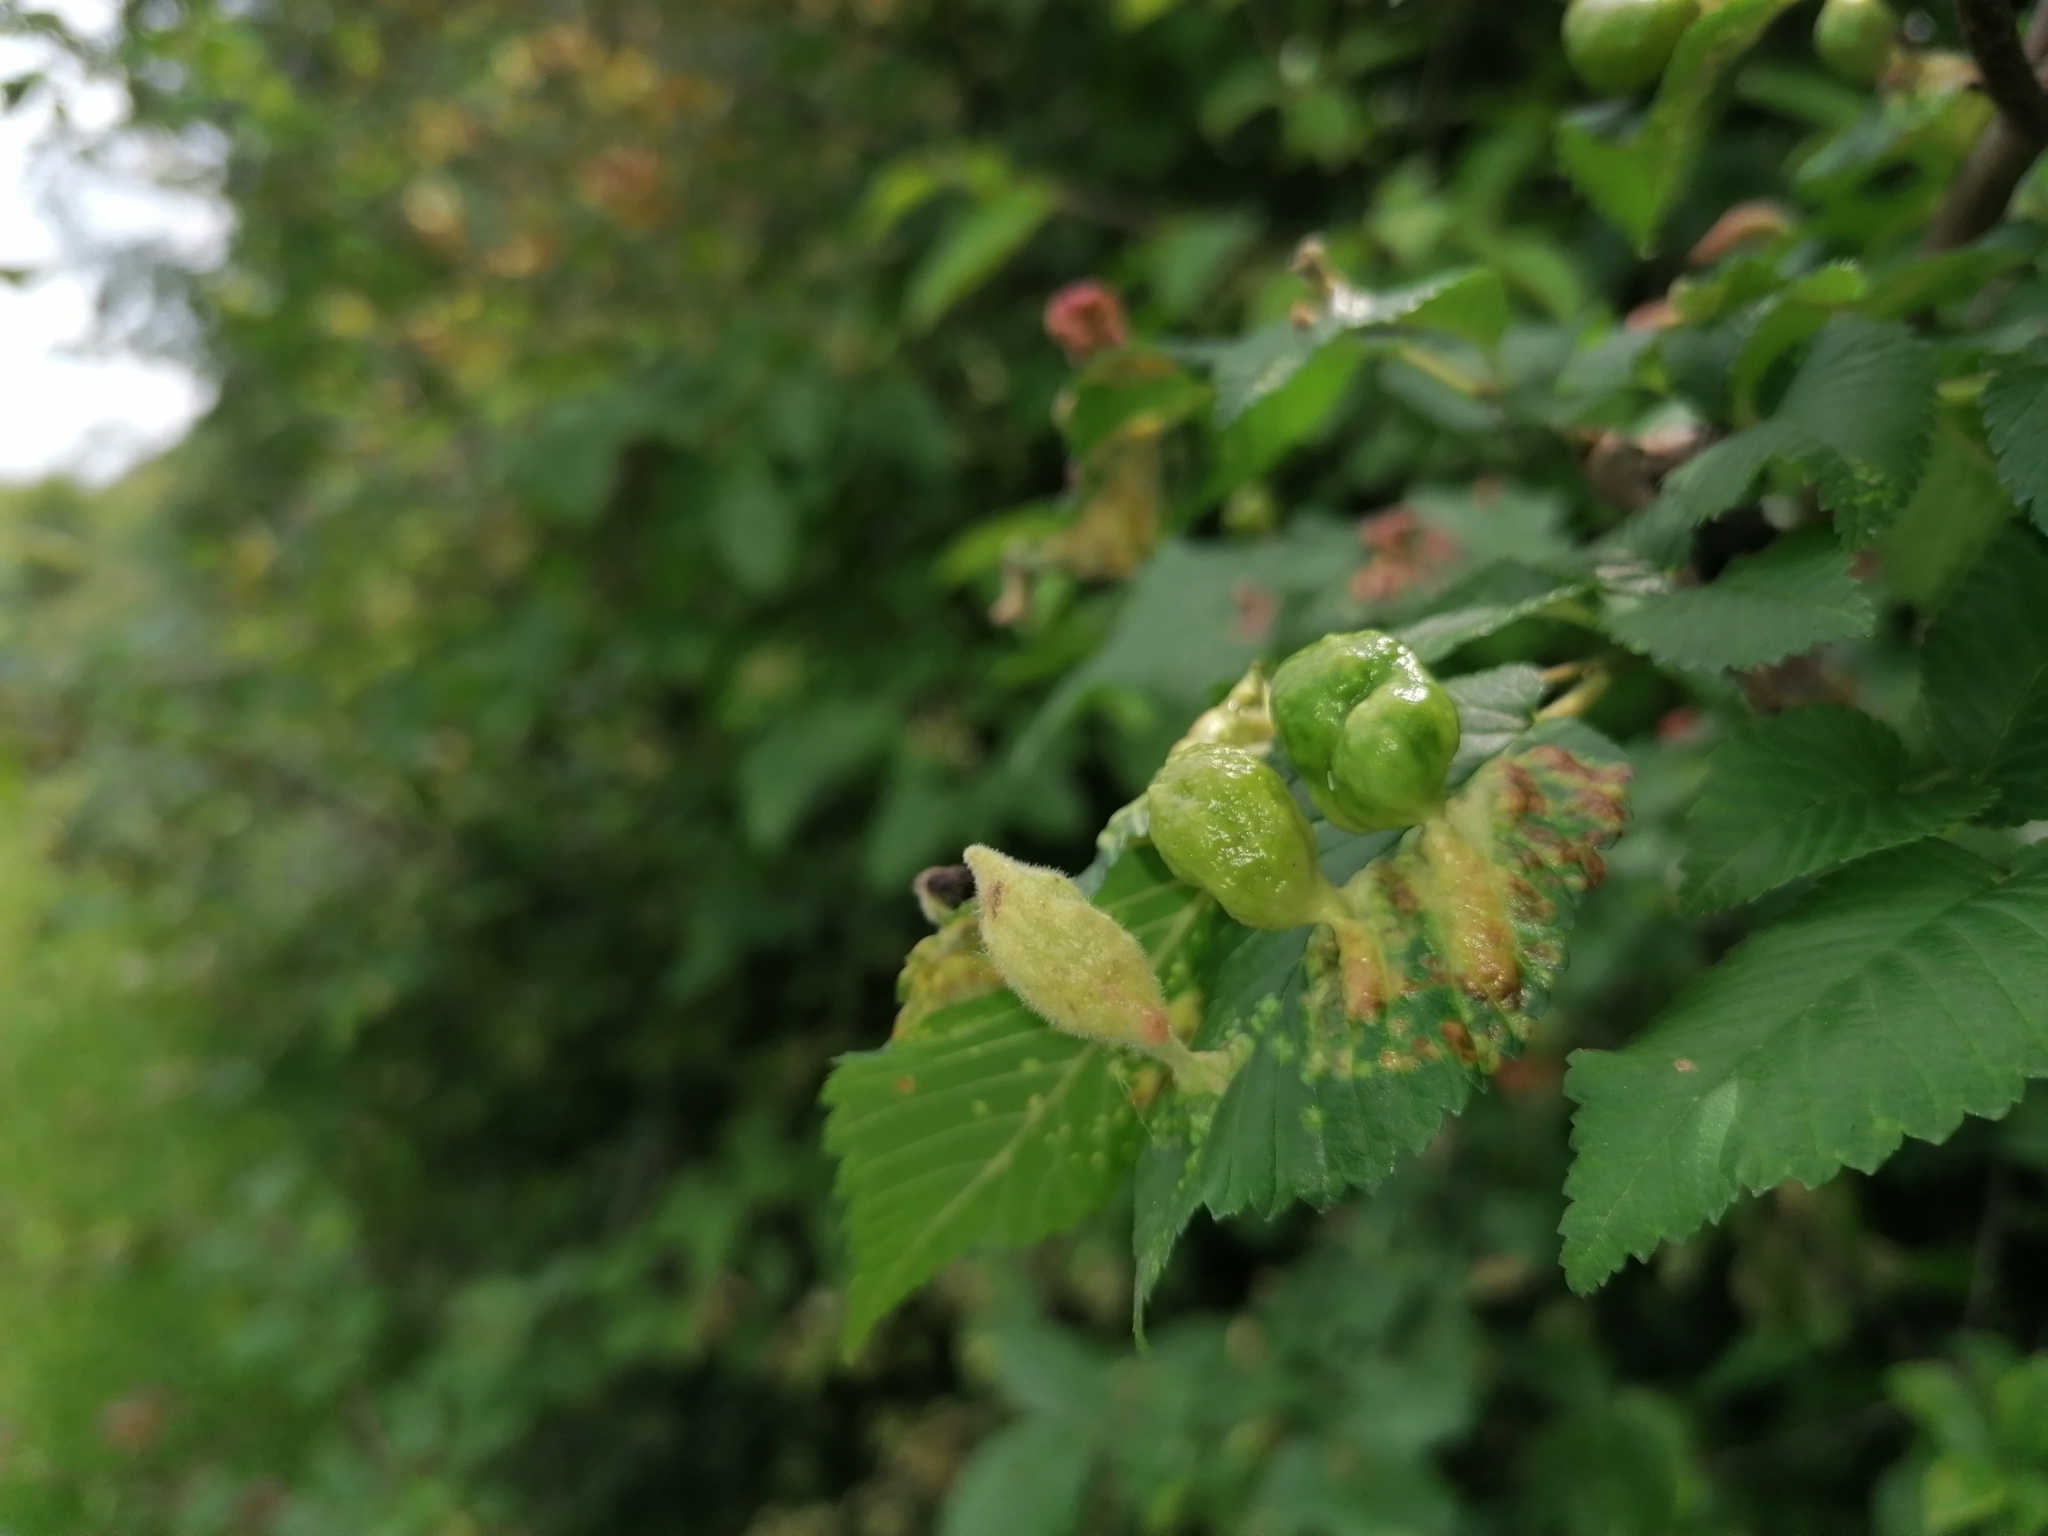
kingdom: Animalia
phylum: Arthropoda
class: Insecta
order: Hemiptera
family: Aphididae
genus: Tetraneura
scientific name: Tetraneura ulmi
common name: Aphid
